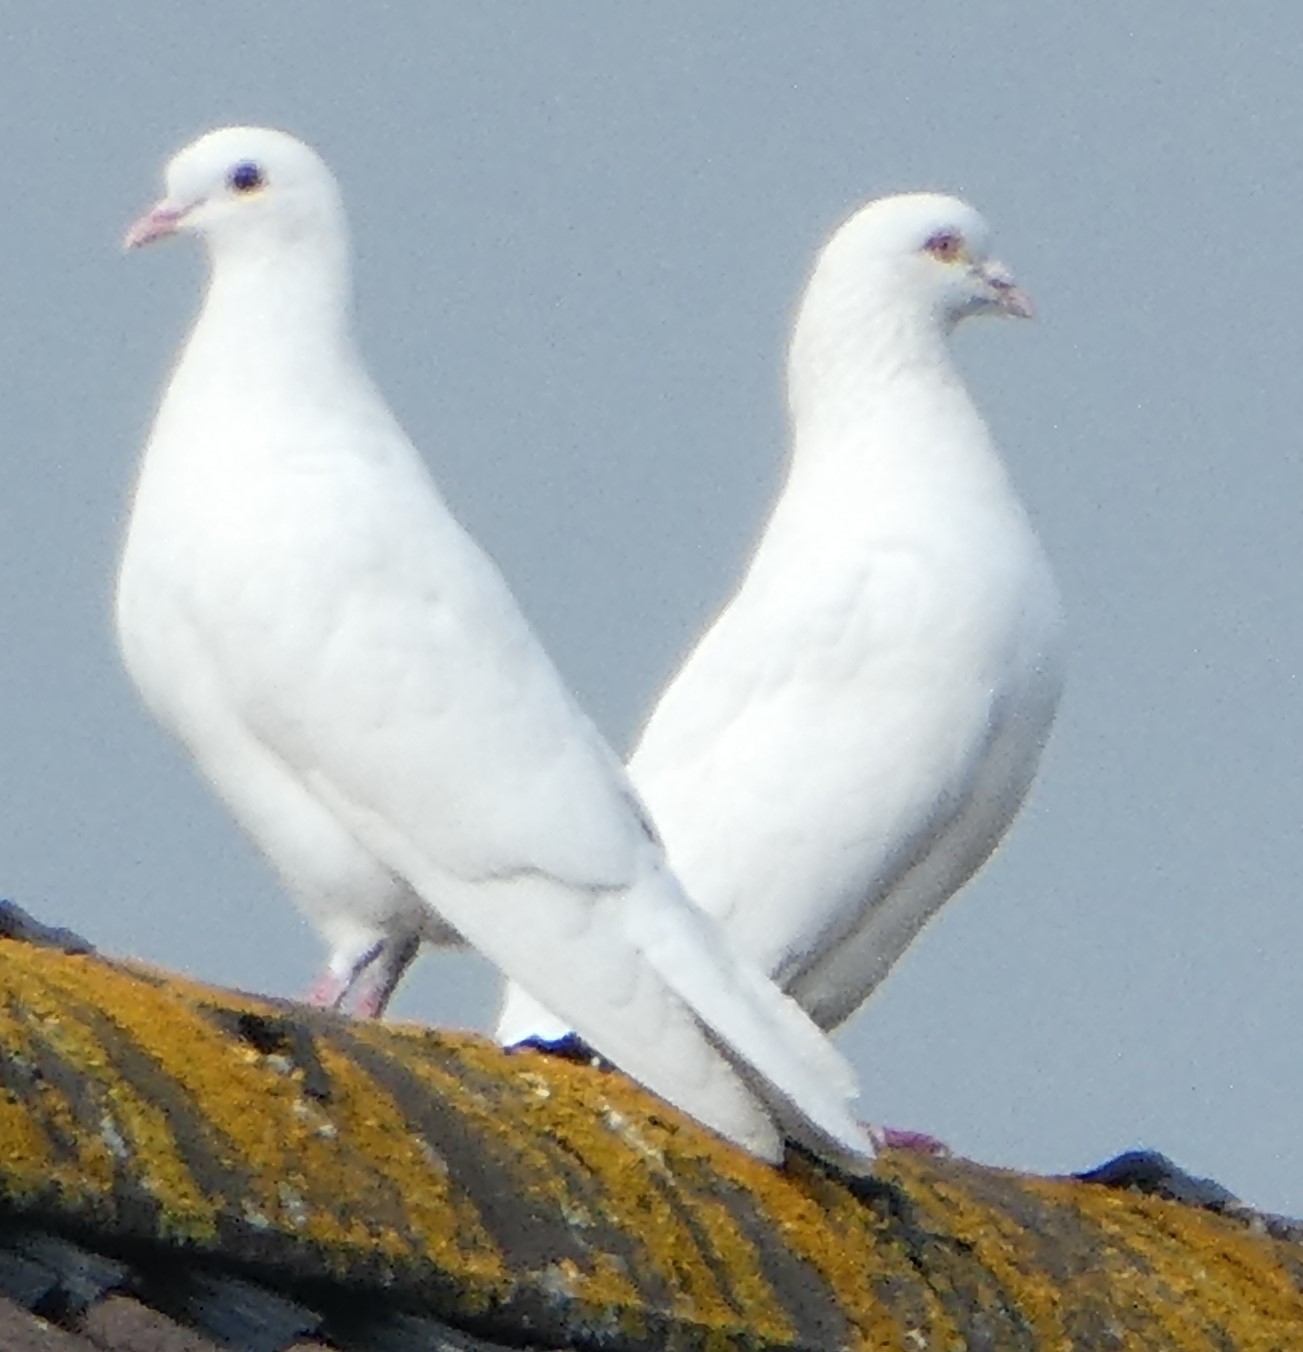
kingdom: Animalia
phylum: Chordata
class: Aves
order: Columbiformes
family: Columbidae
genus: Columba
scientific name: Columba livia
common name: Rock pigeon
